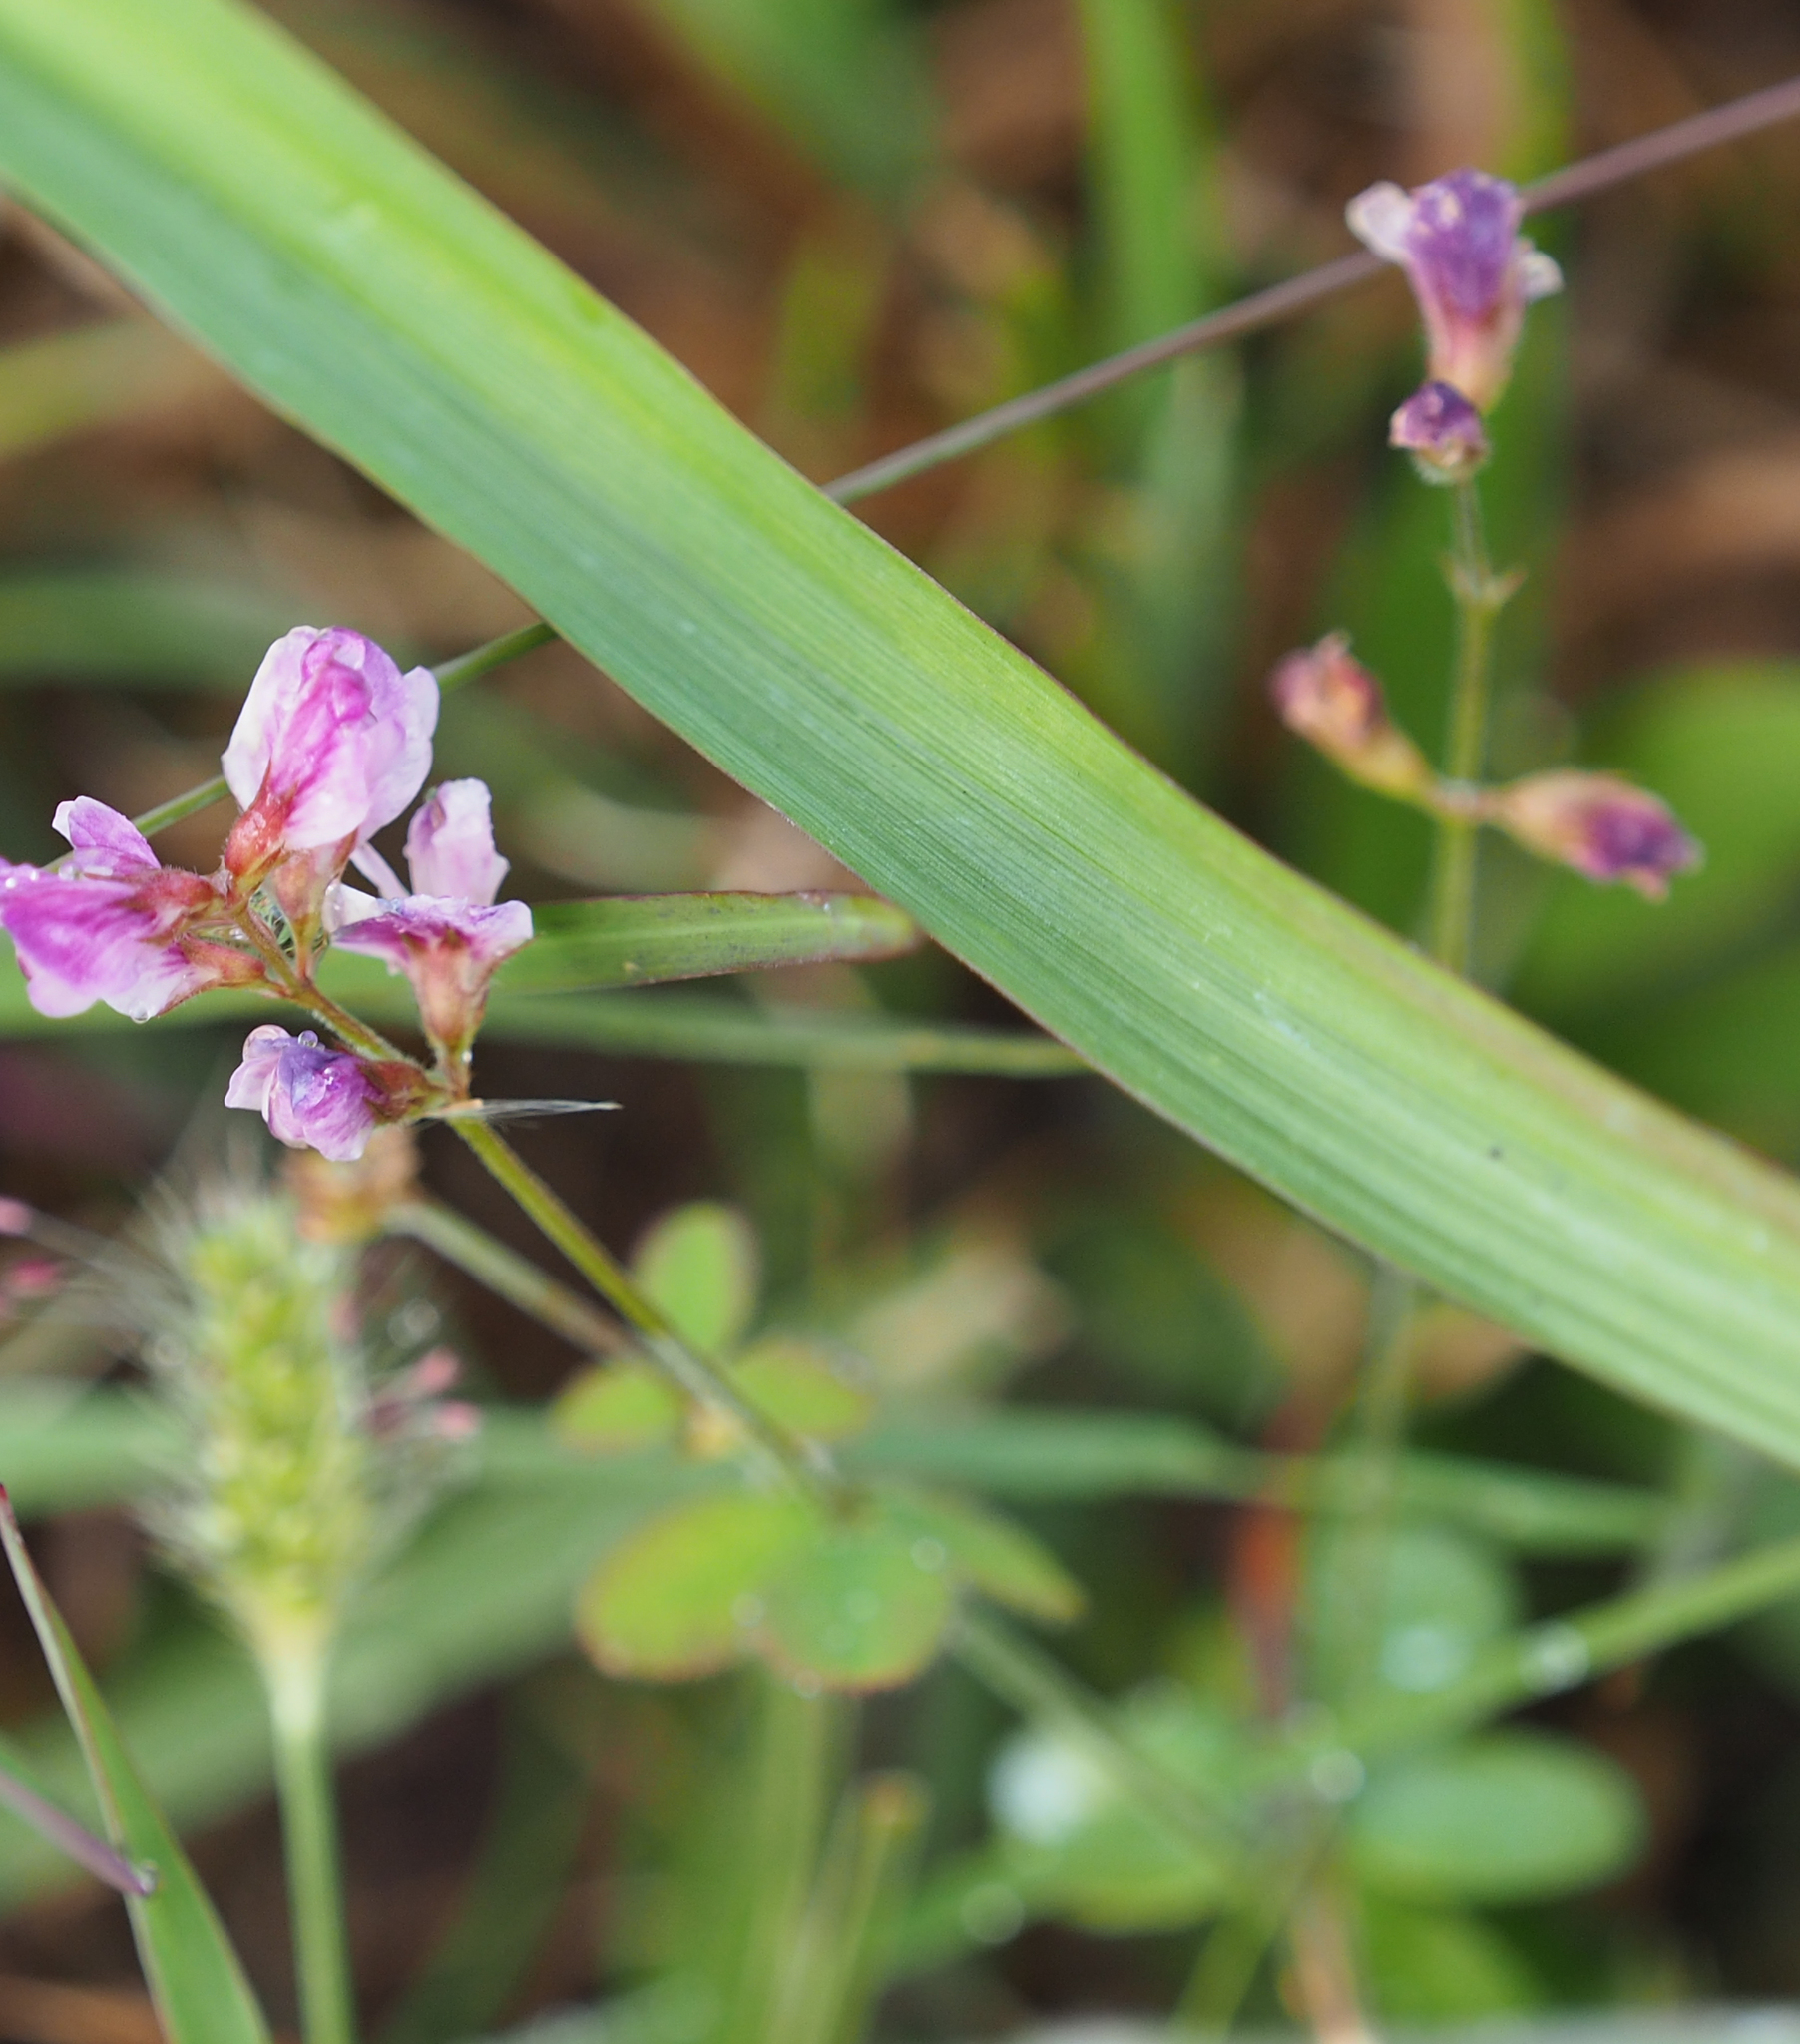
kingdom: Plantae
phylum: Tracheophyta
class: Magnoliopsida
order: Fabales
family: Fabaceae
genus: Lespedeza
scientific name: Lespedeza procumbens
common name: Downy trailing bush-clover
